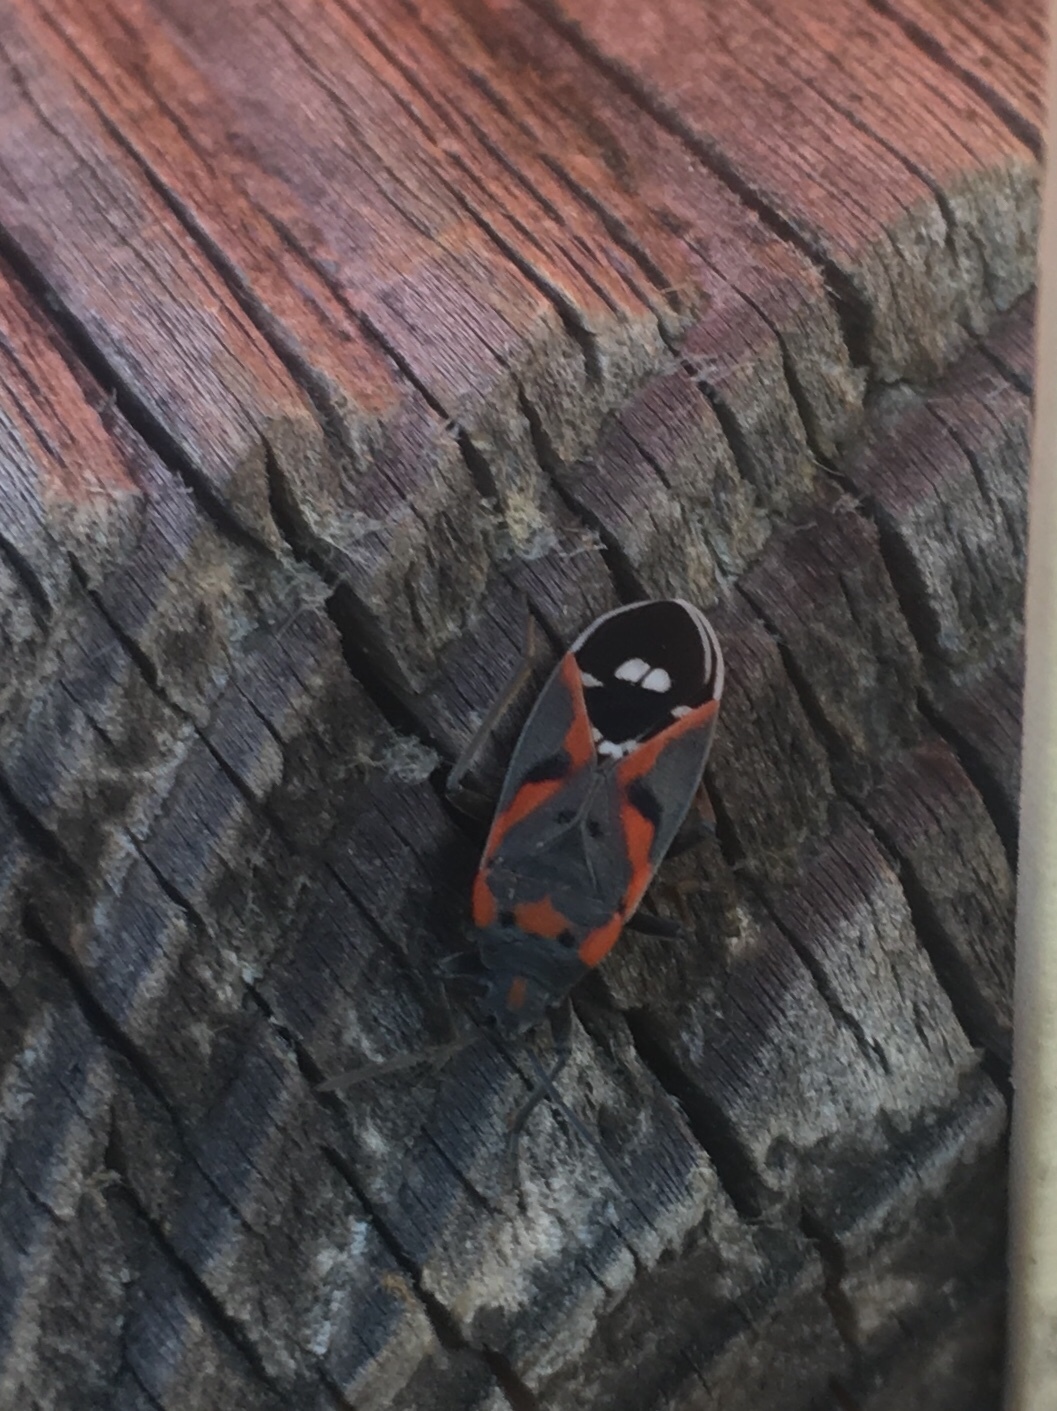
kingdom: Animalia
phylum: Arthropoda
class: Insecta
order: Hemiptera
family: Lygaeidae
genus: Lygaeus
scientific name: Lygaeus kalmii
